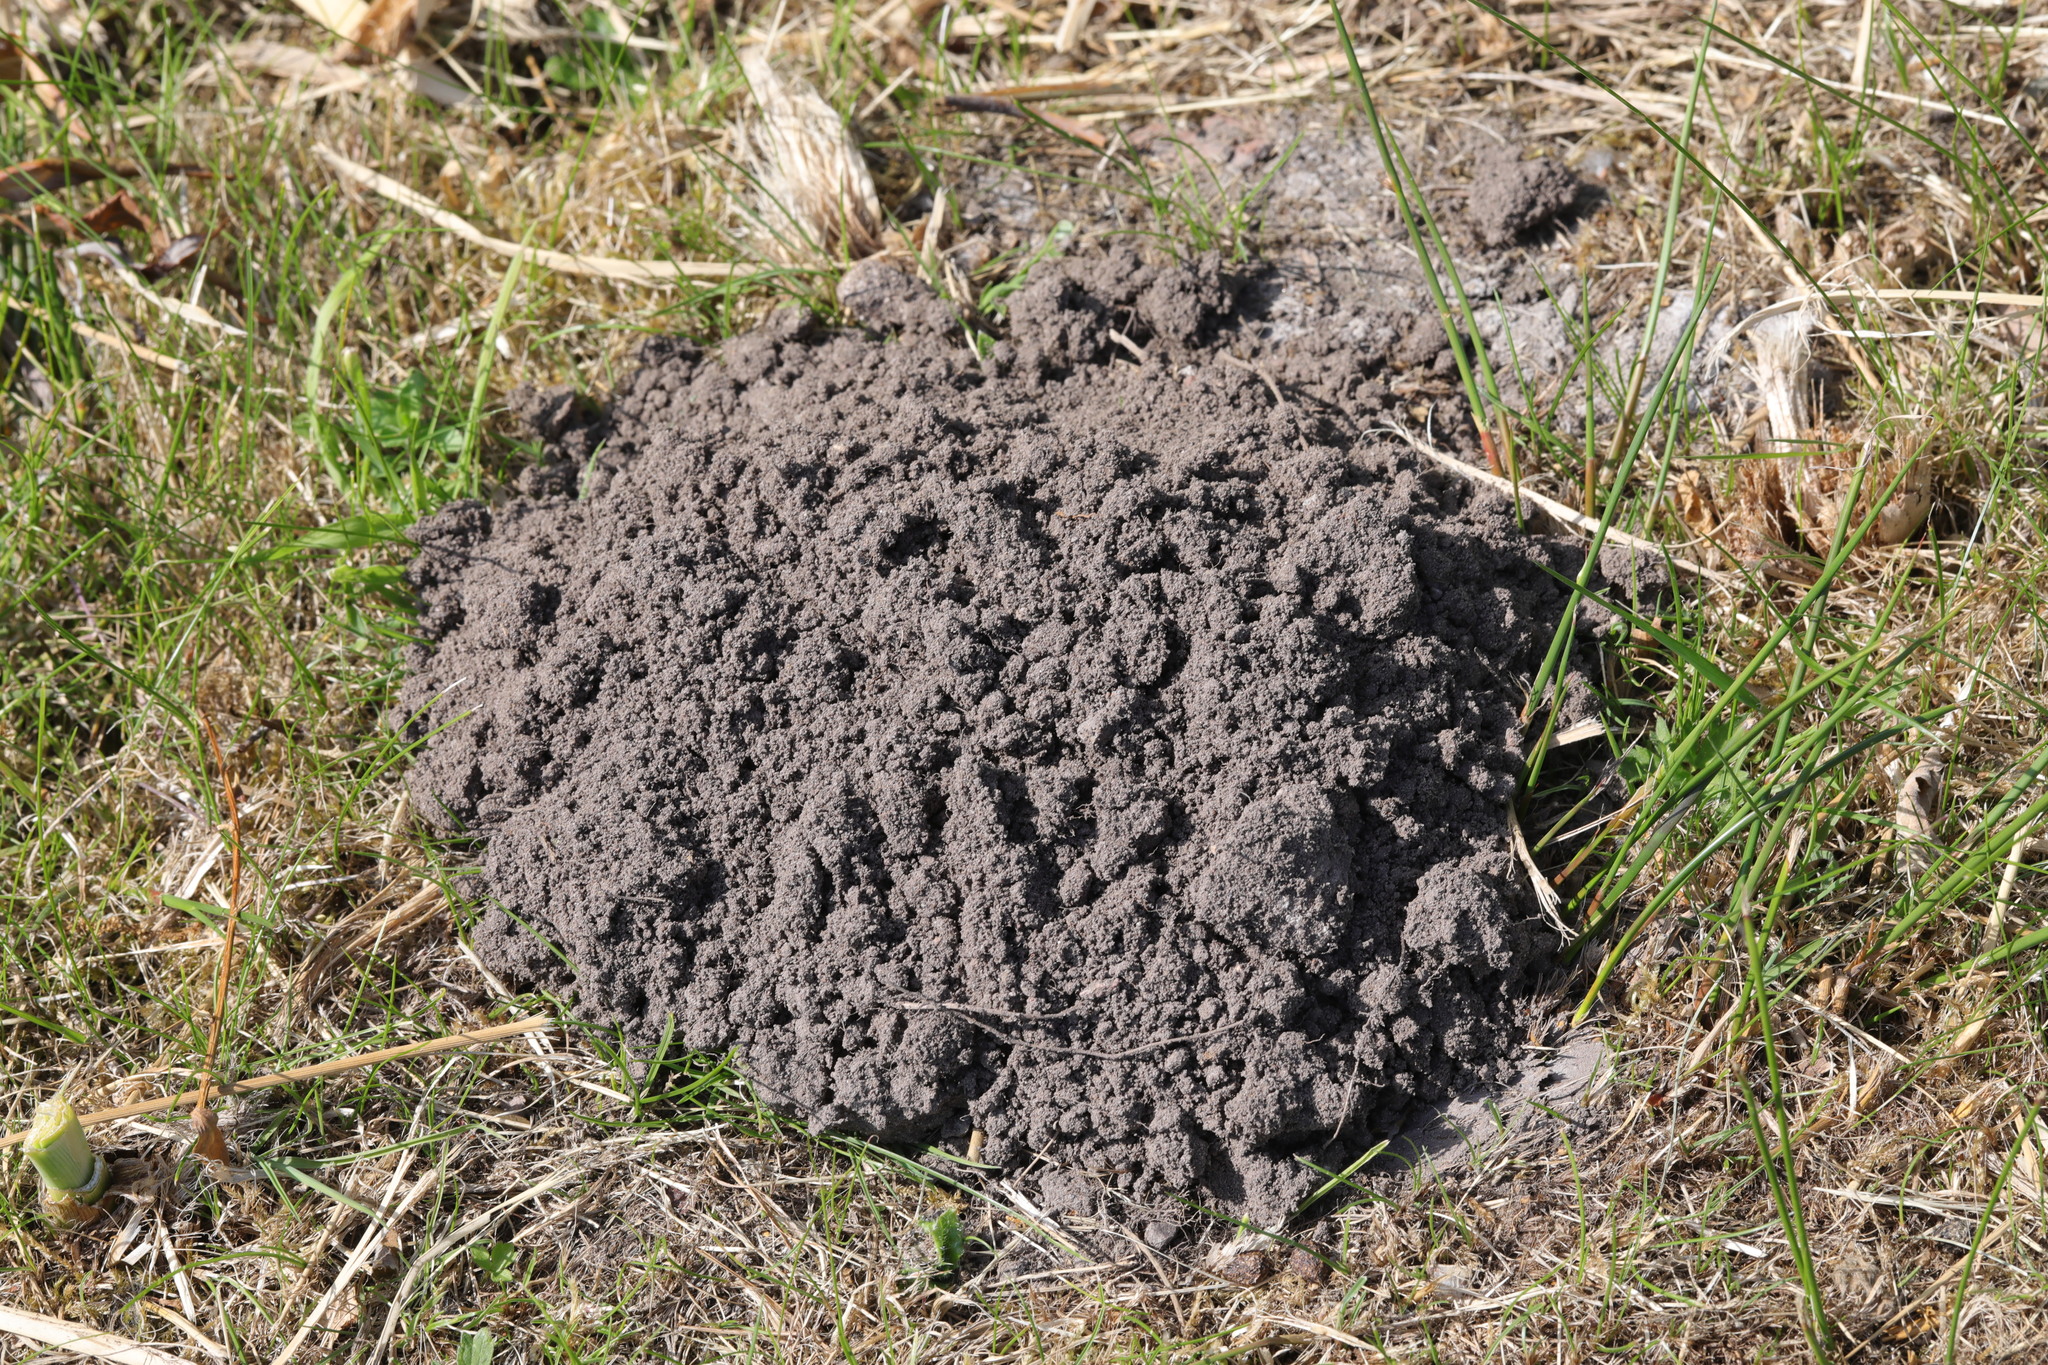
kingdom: Animalia
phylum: Chordata
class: Mammalia
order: Soricomorpha
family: Talpidae
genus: Talpa
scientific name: Talpa europaea
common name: European mole
